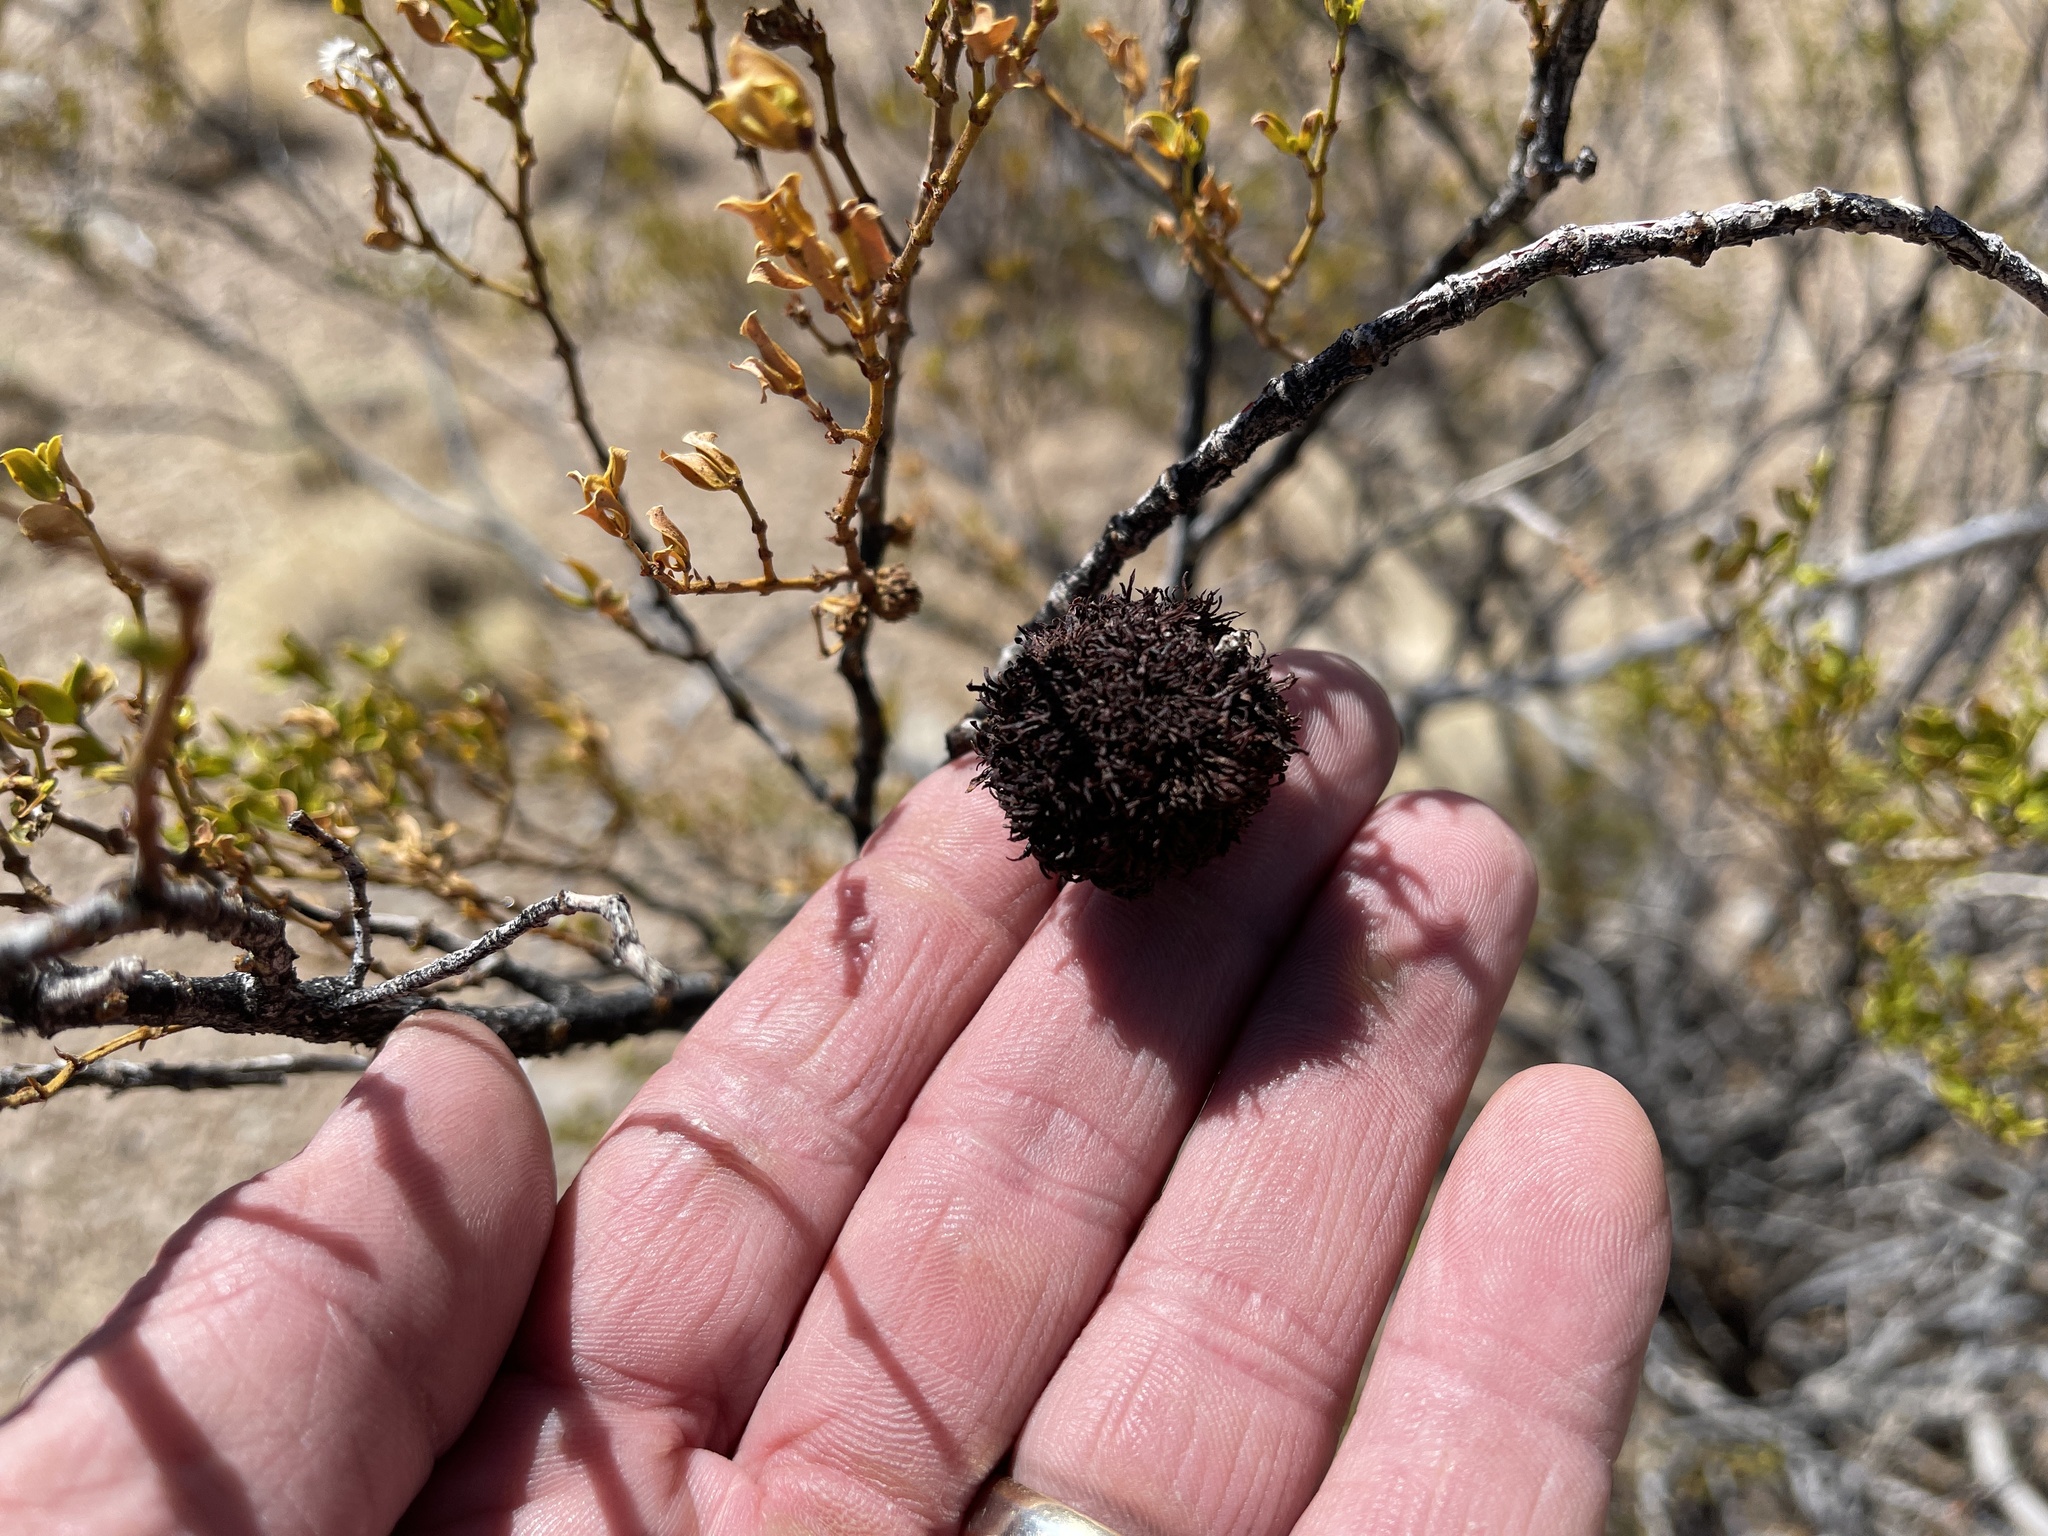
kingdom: Animalia
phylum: Arthropoda
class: Insecta
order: Diptera
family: Cecidomyiidae
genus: Asphondylia
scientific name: Asphondylia auripila
